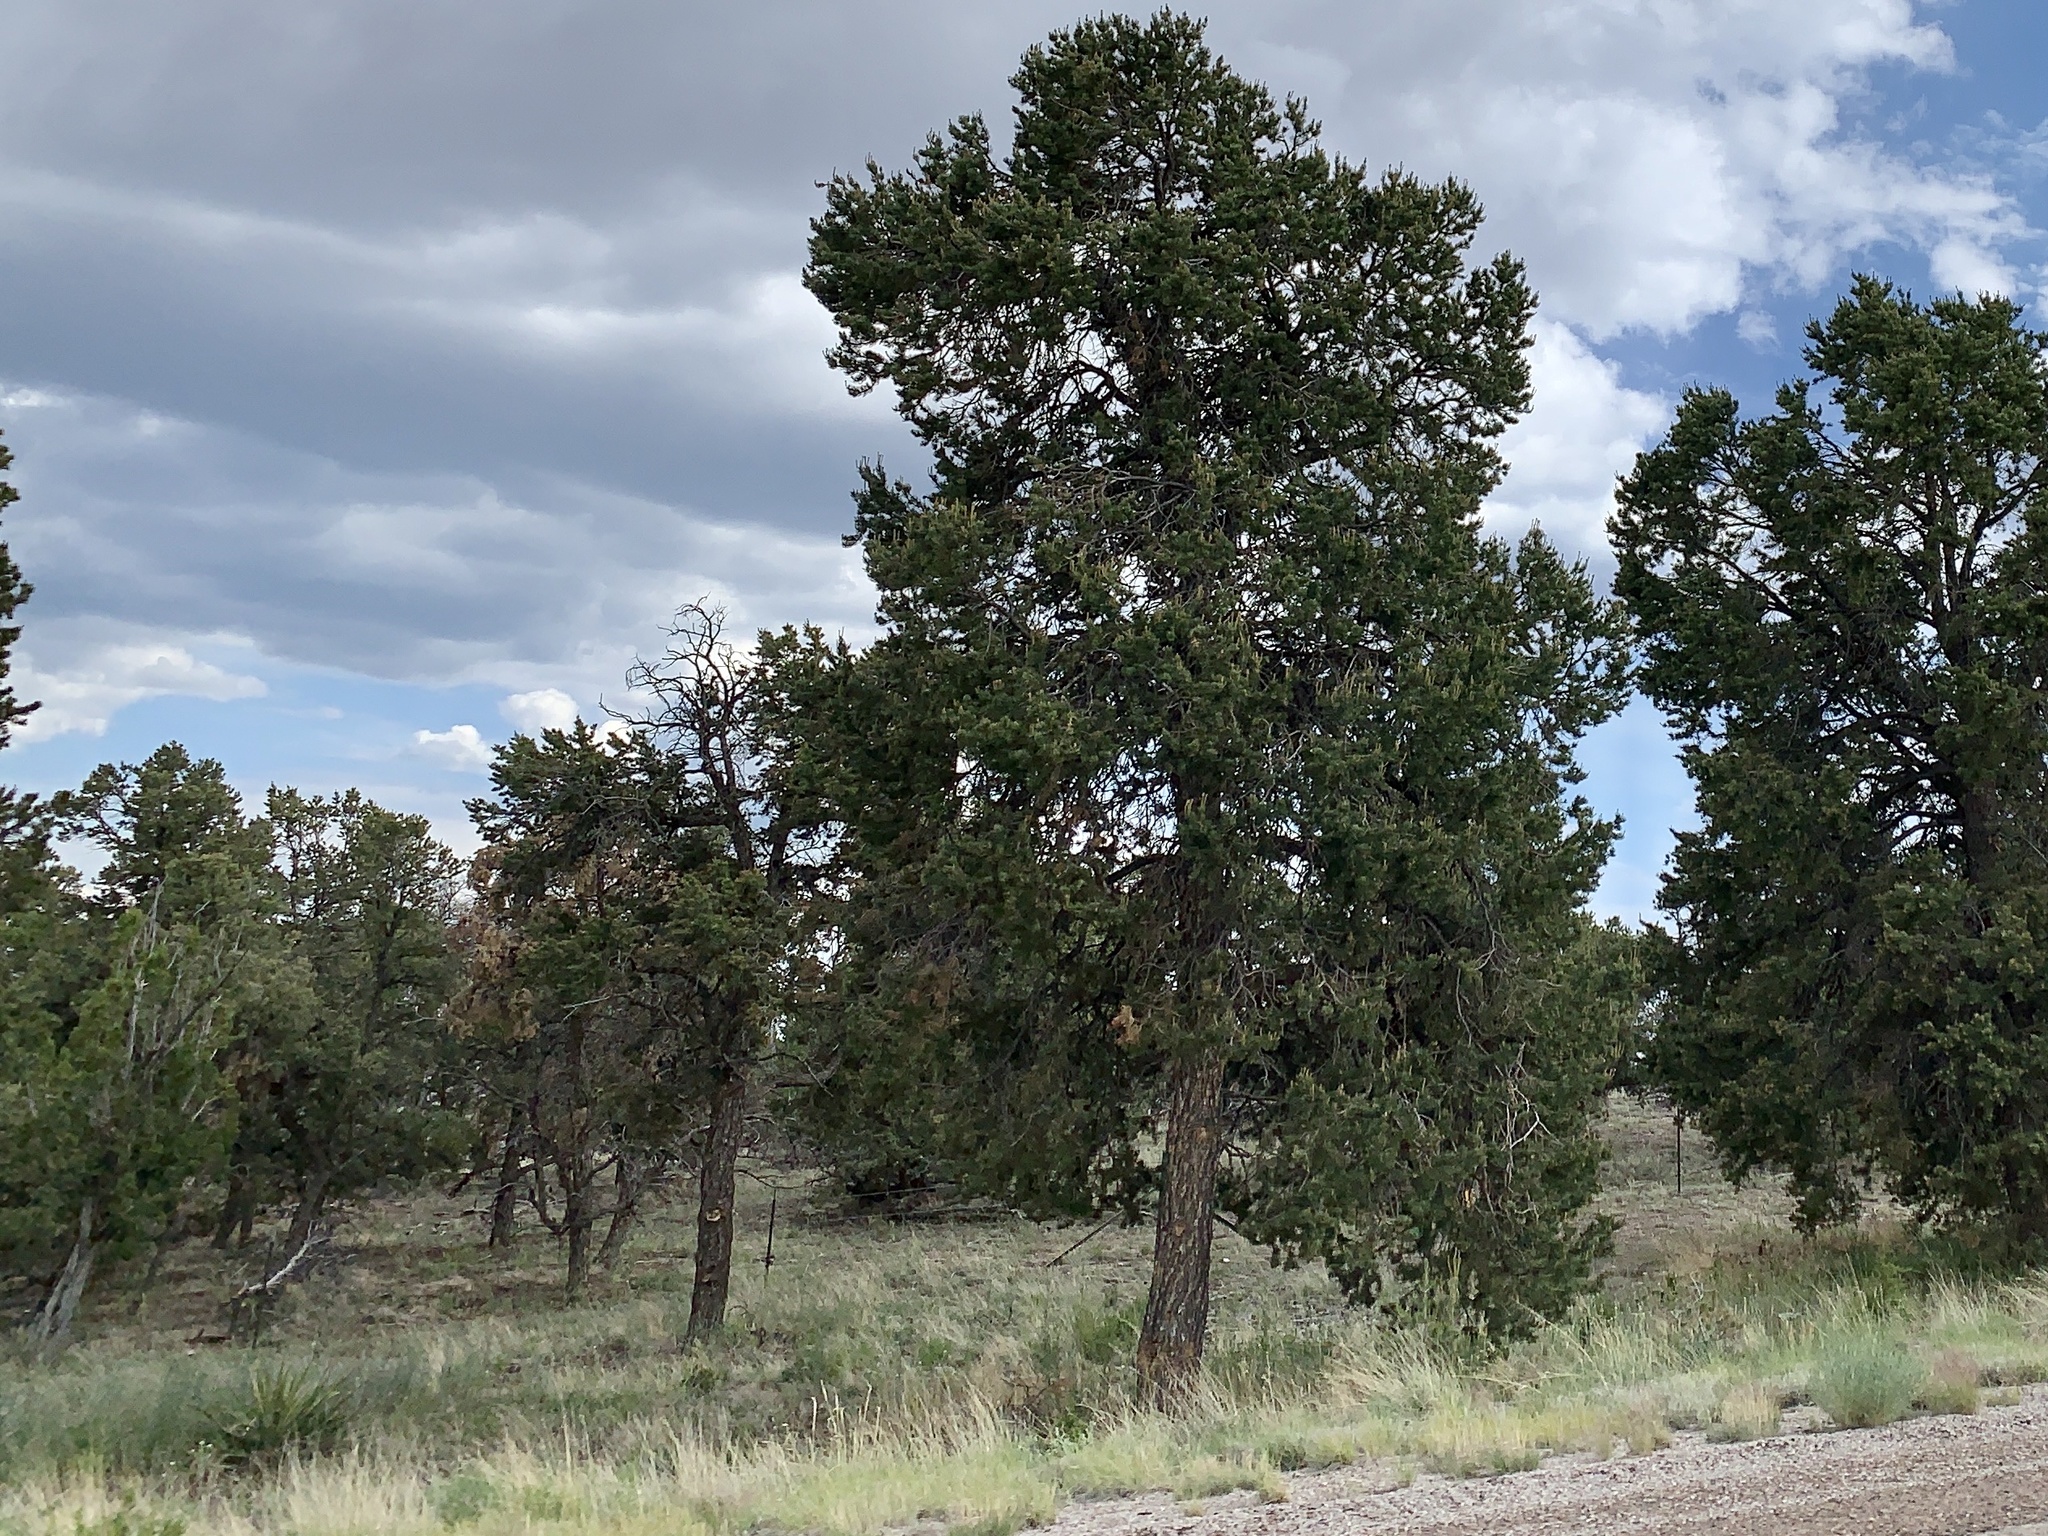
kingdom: Plantae
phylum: Tracheophyta
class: Pinopsida
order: Pinales
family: Pinaceae
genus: Pinus
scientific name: Pinus edulis
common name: Colorado pinyon
